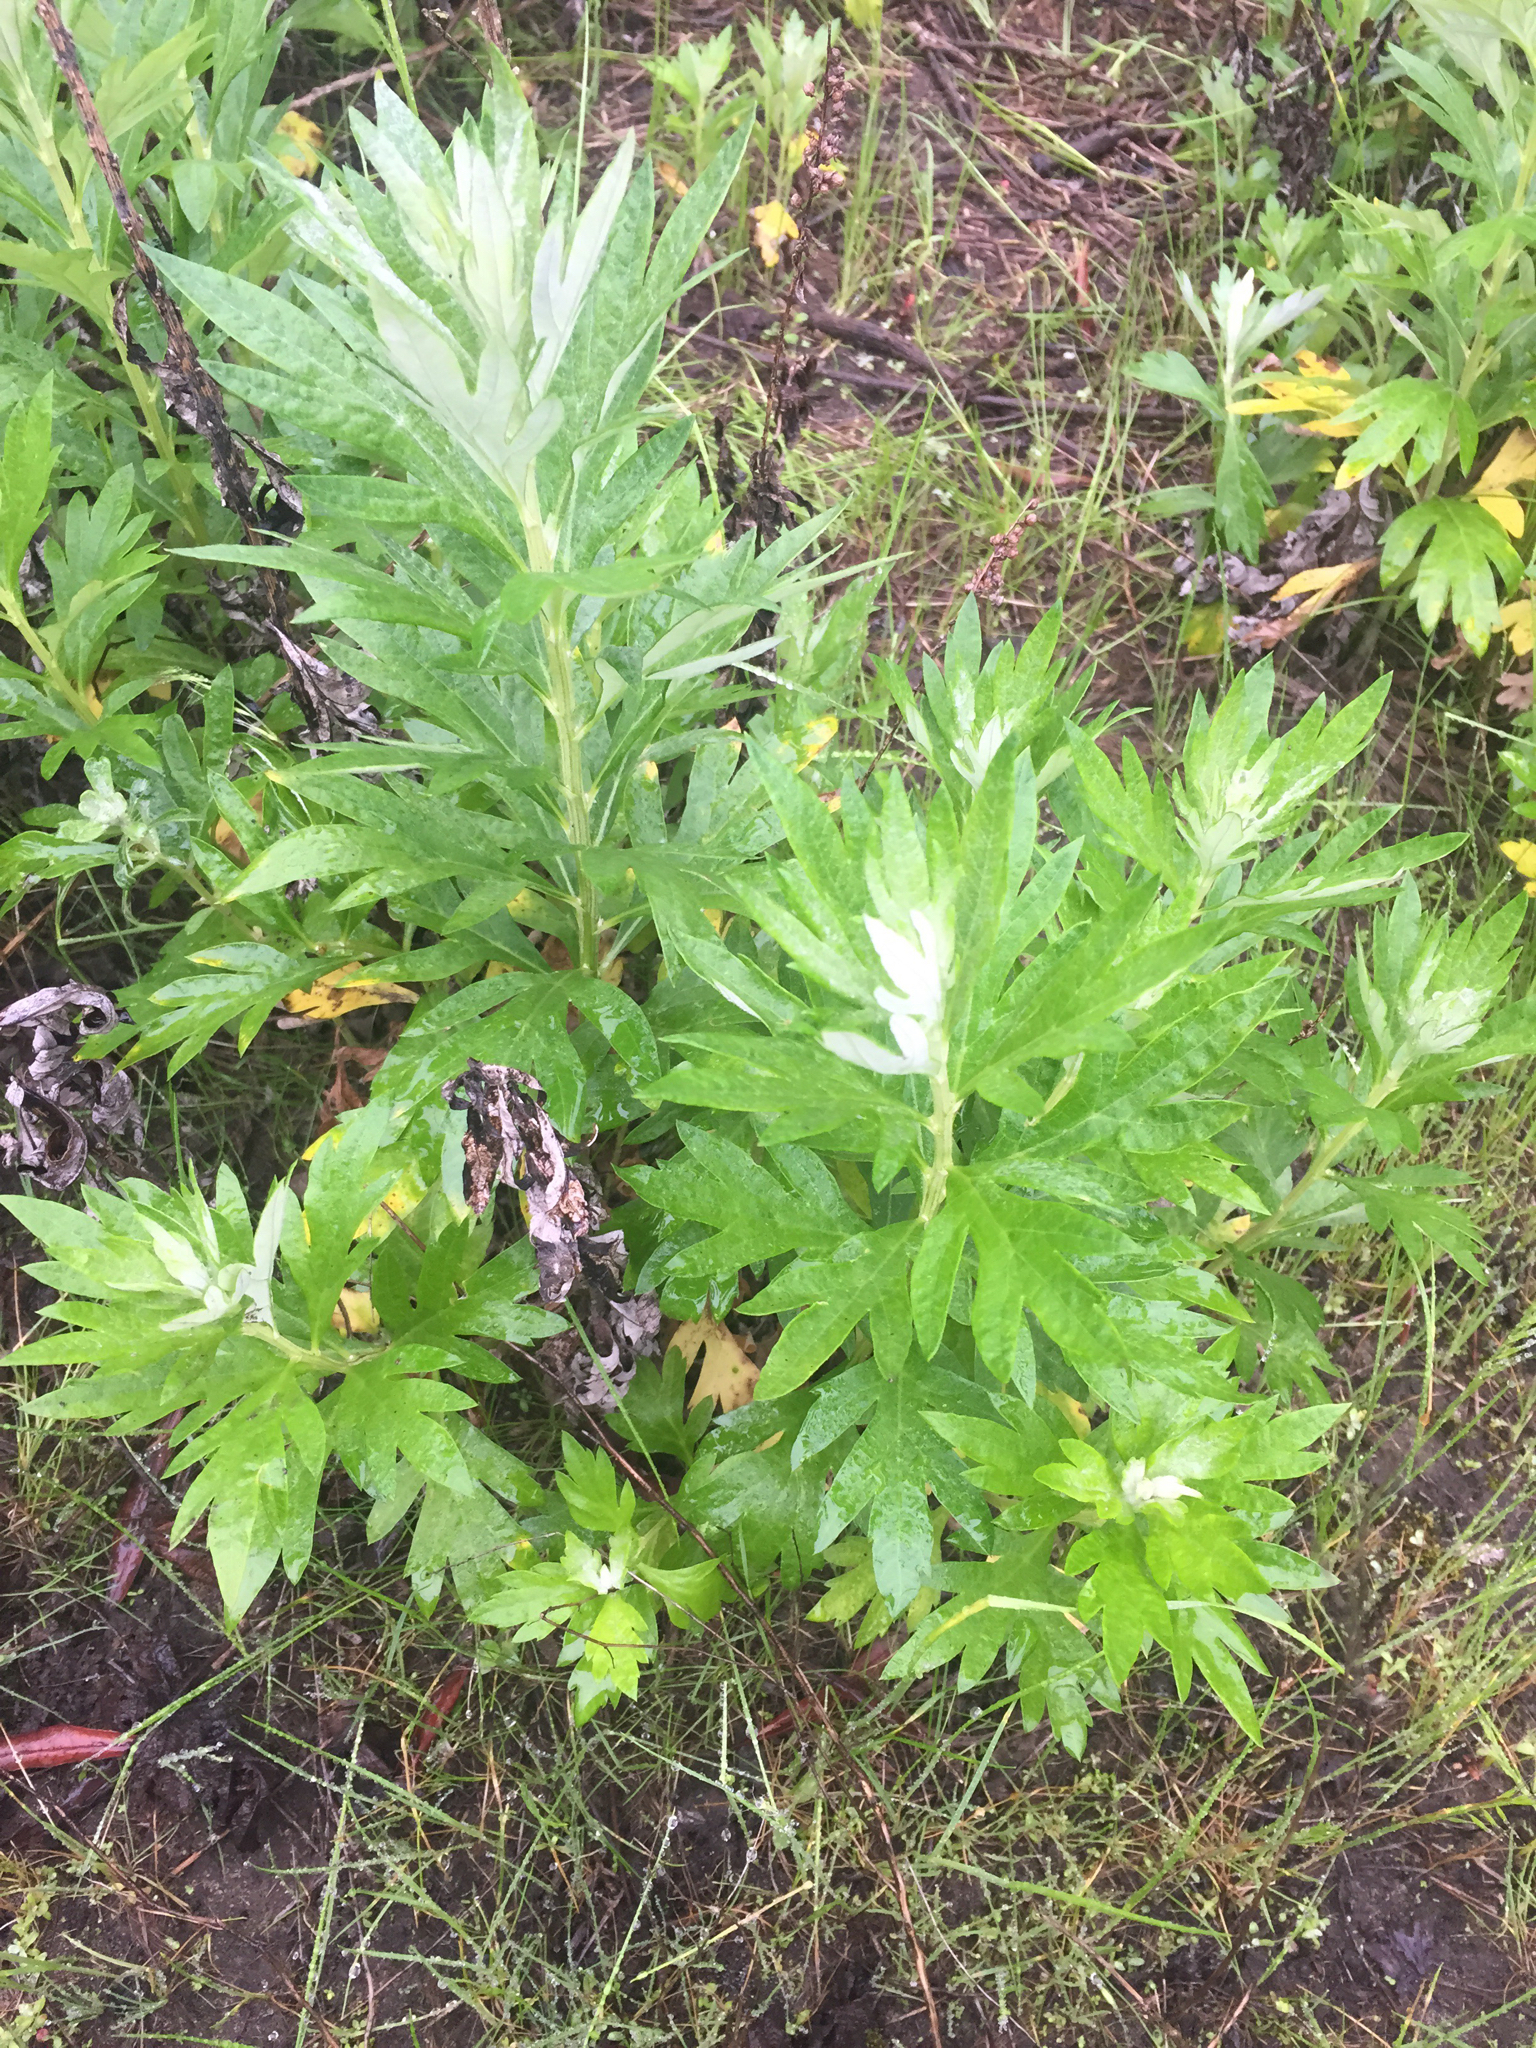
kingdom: Plantae
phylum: Tracheophyta
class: Magnoliopsida
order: Asterales
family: Asteraceae
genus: Artemisia
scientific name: Artemisia douglasiana
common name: Northwest mugwort
